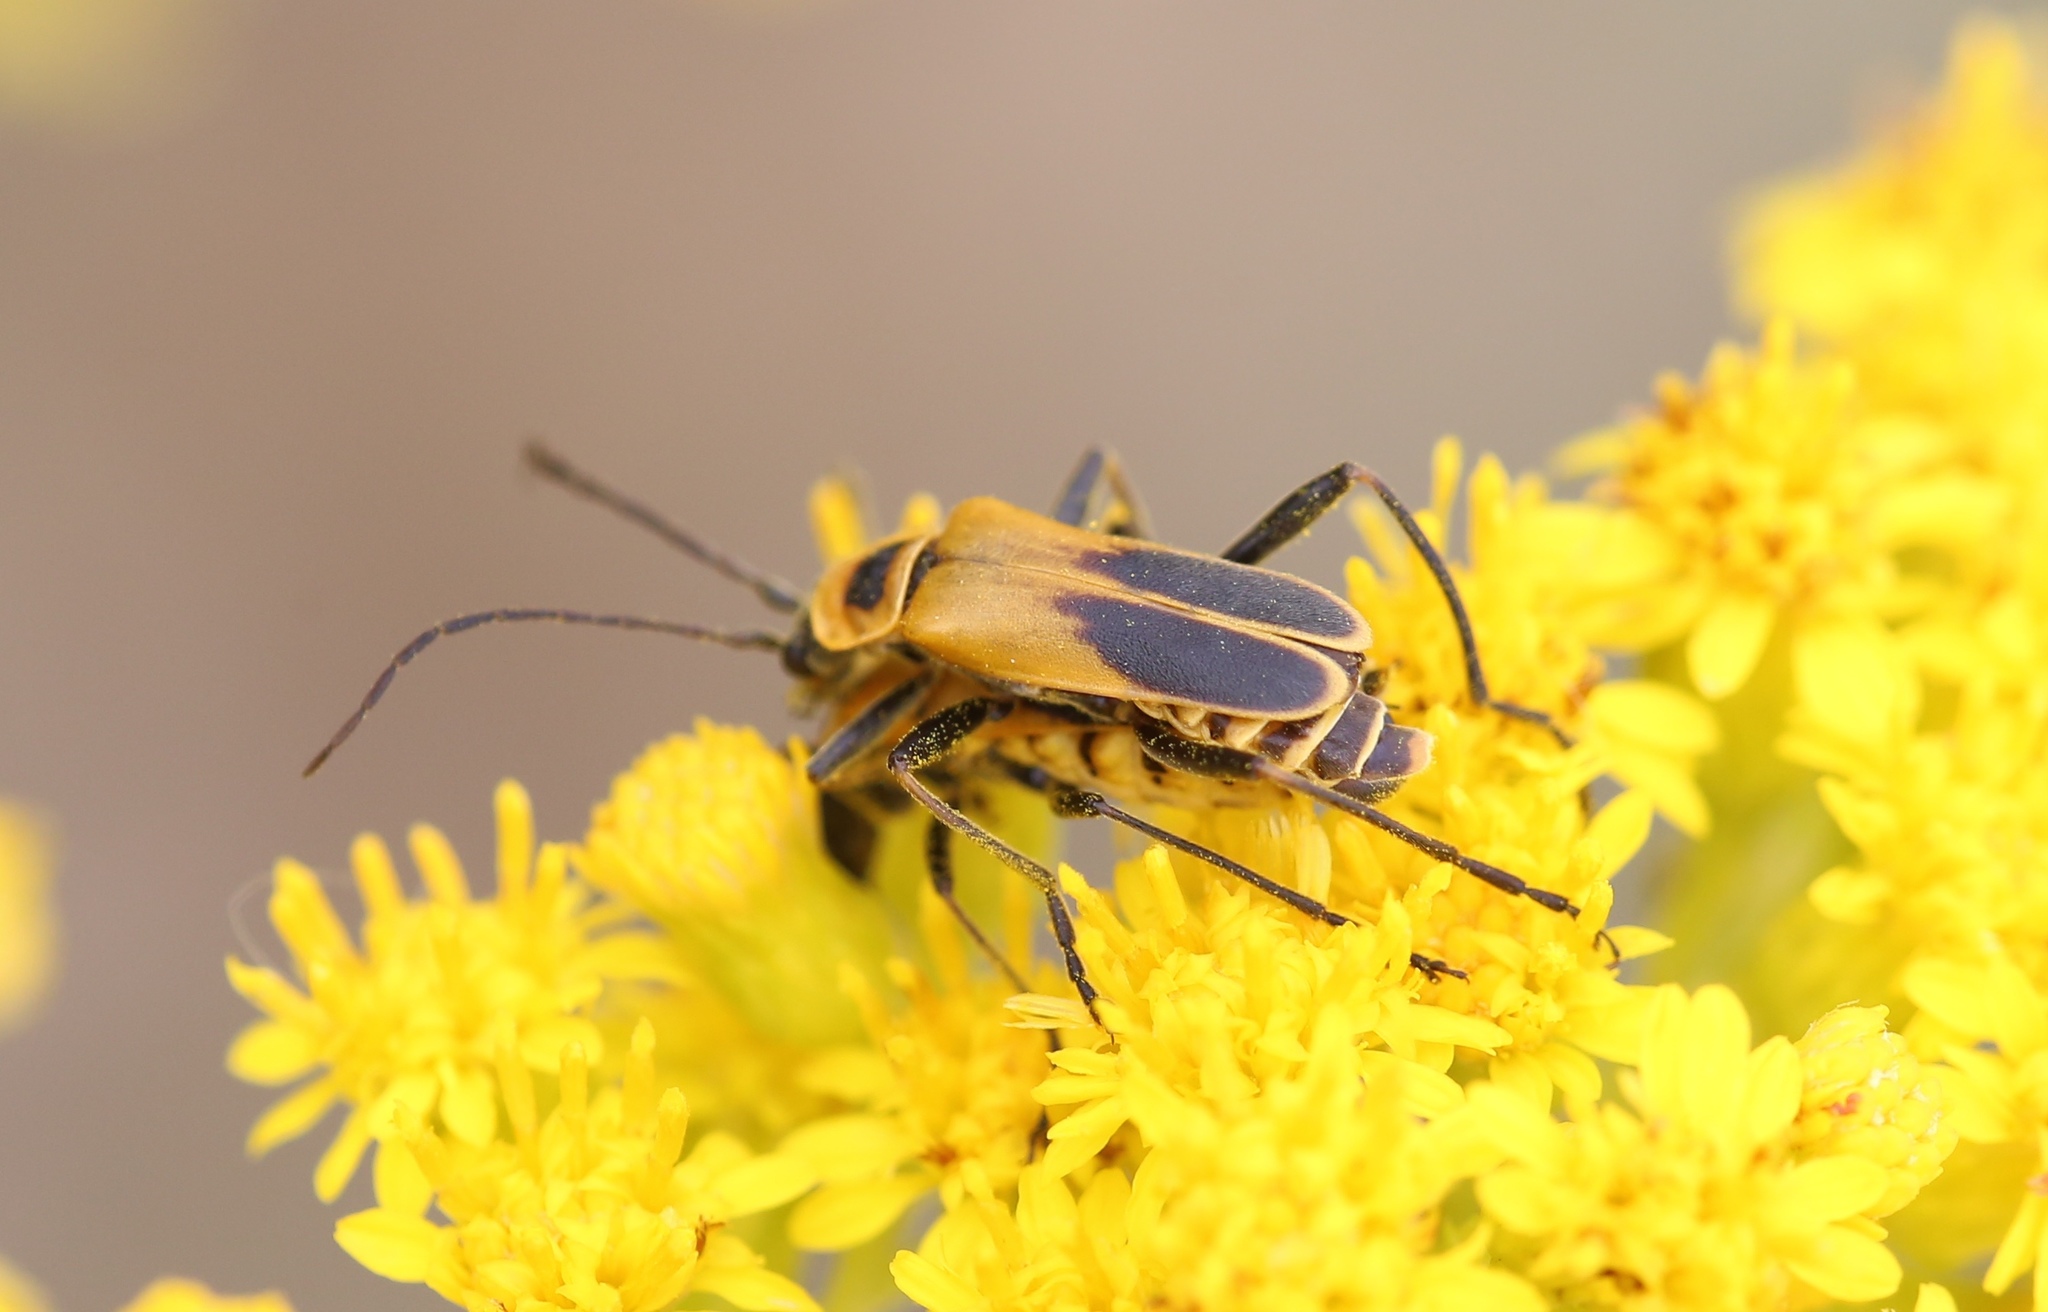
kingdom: Animalia
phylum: Arthropoda
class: Insecta
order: Coleoptera
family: Cantharidae
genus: Chauliognathus
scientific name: Chauliognathus pensylvanicus
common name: Goldenrod soldier beetle
